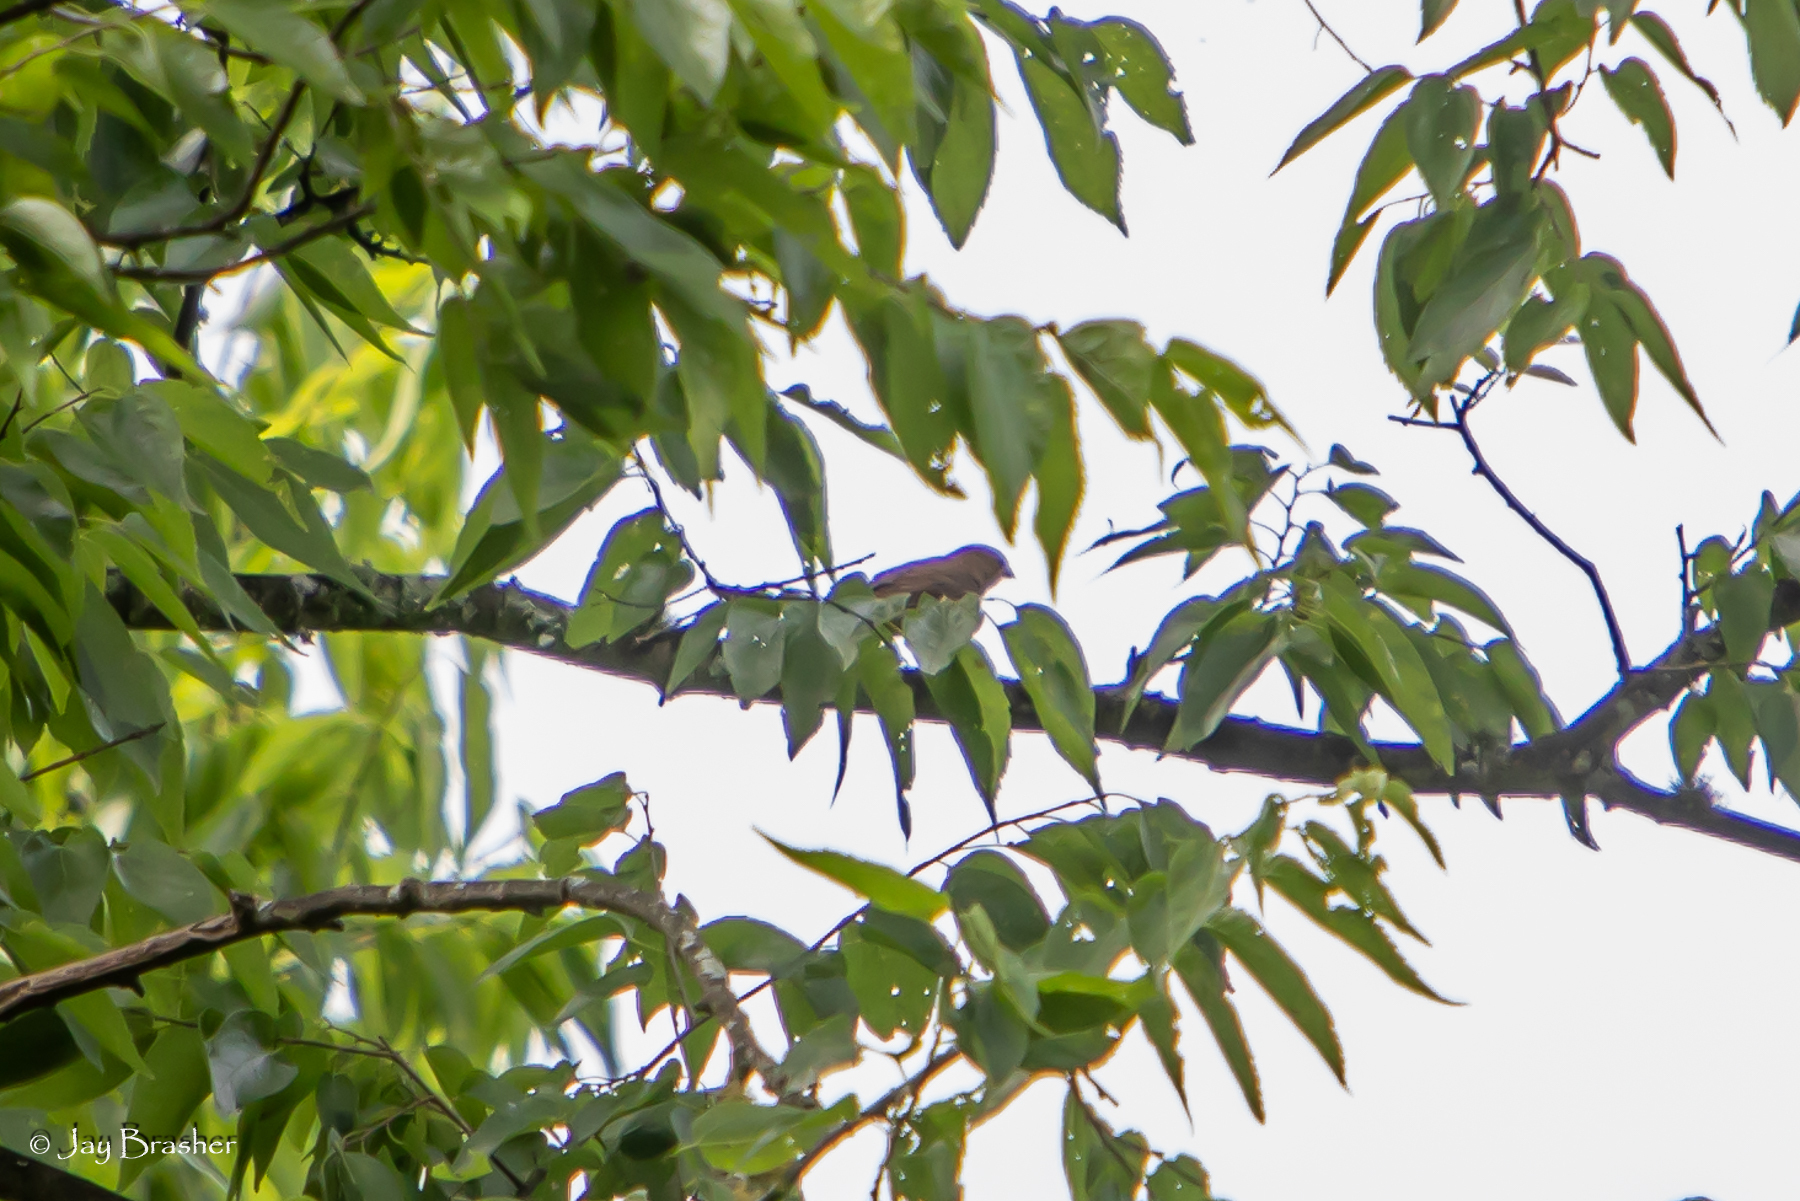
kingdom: Animalia
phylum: Chordata
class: Aves
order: Passeriformes
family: Cardinalidae
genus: Passerina
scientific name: Passerina cyanea
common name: Indigo bunting
